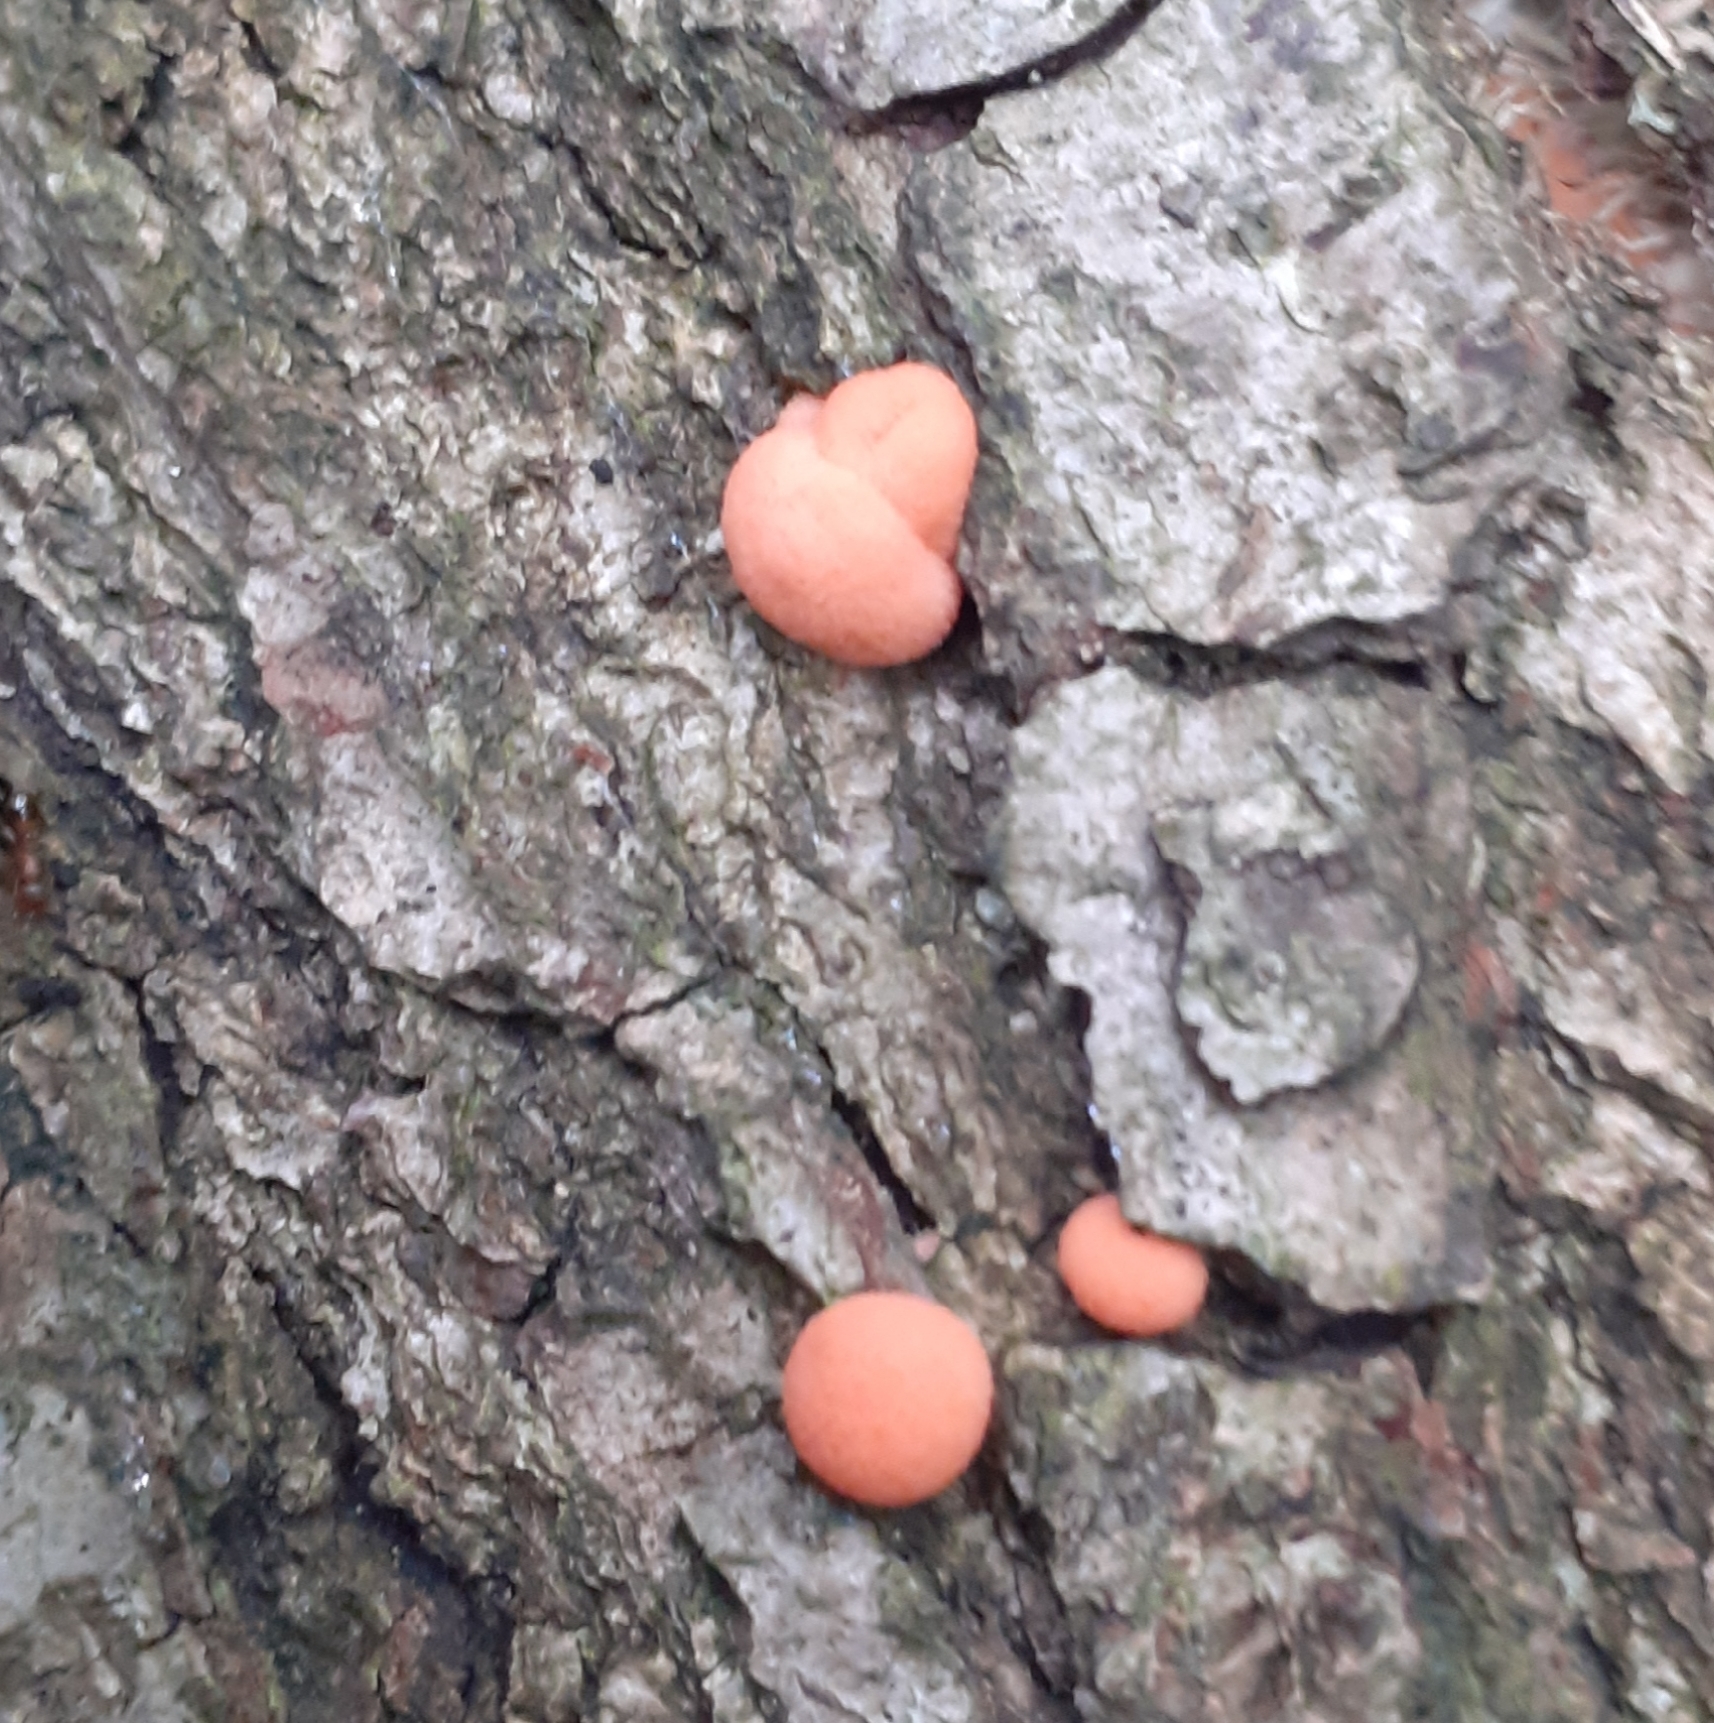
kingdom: Protozoa
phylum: Mycetozoa
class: Myxomycetes
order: Cribrariales
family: Tubiferaceae
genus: Lycogala
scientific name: Lycogala epidendrum
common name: Wolf's milk
